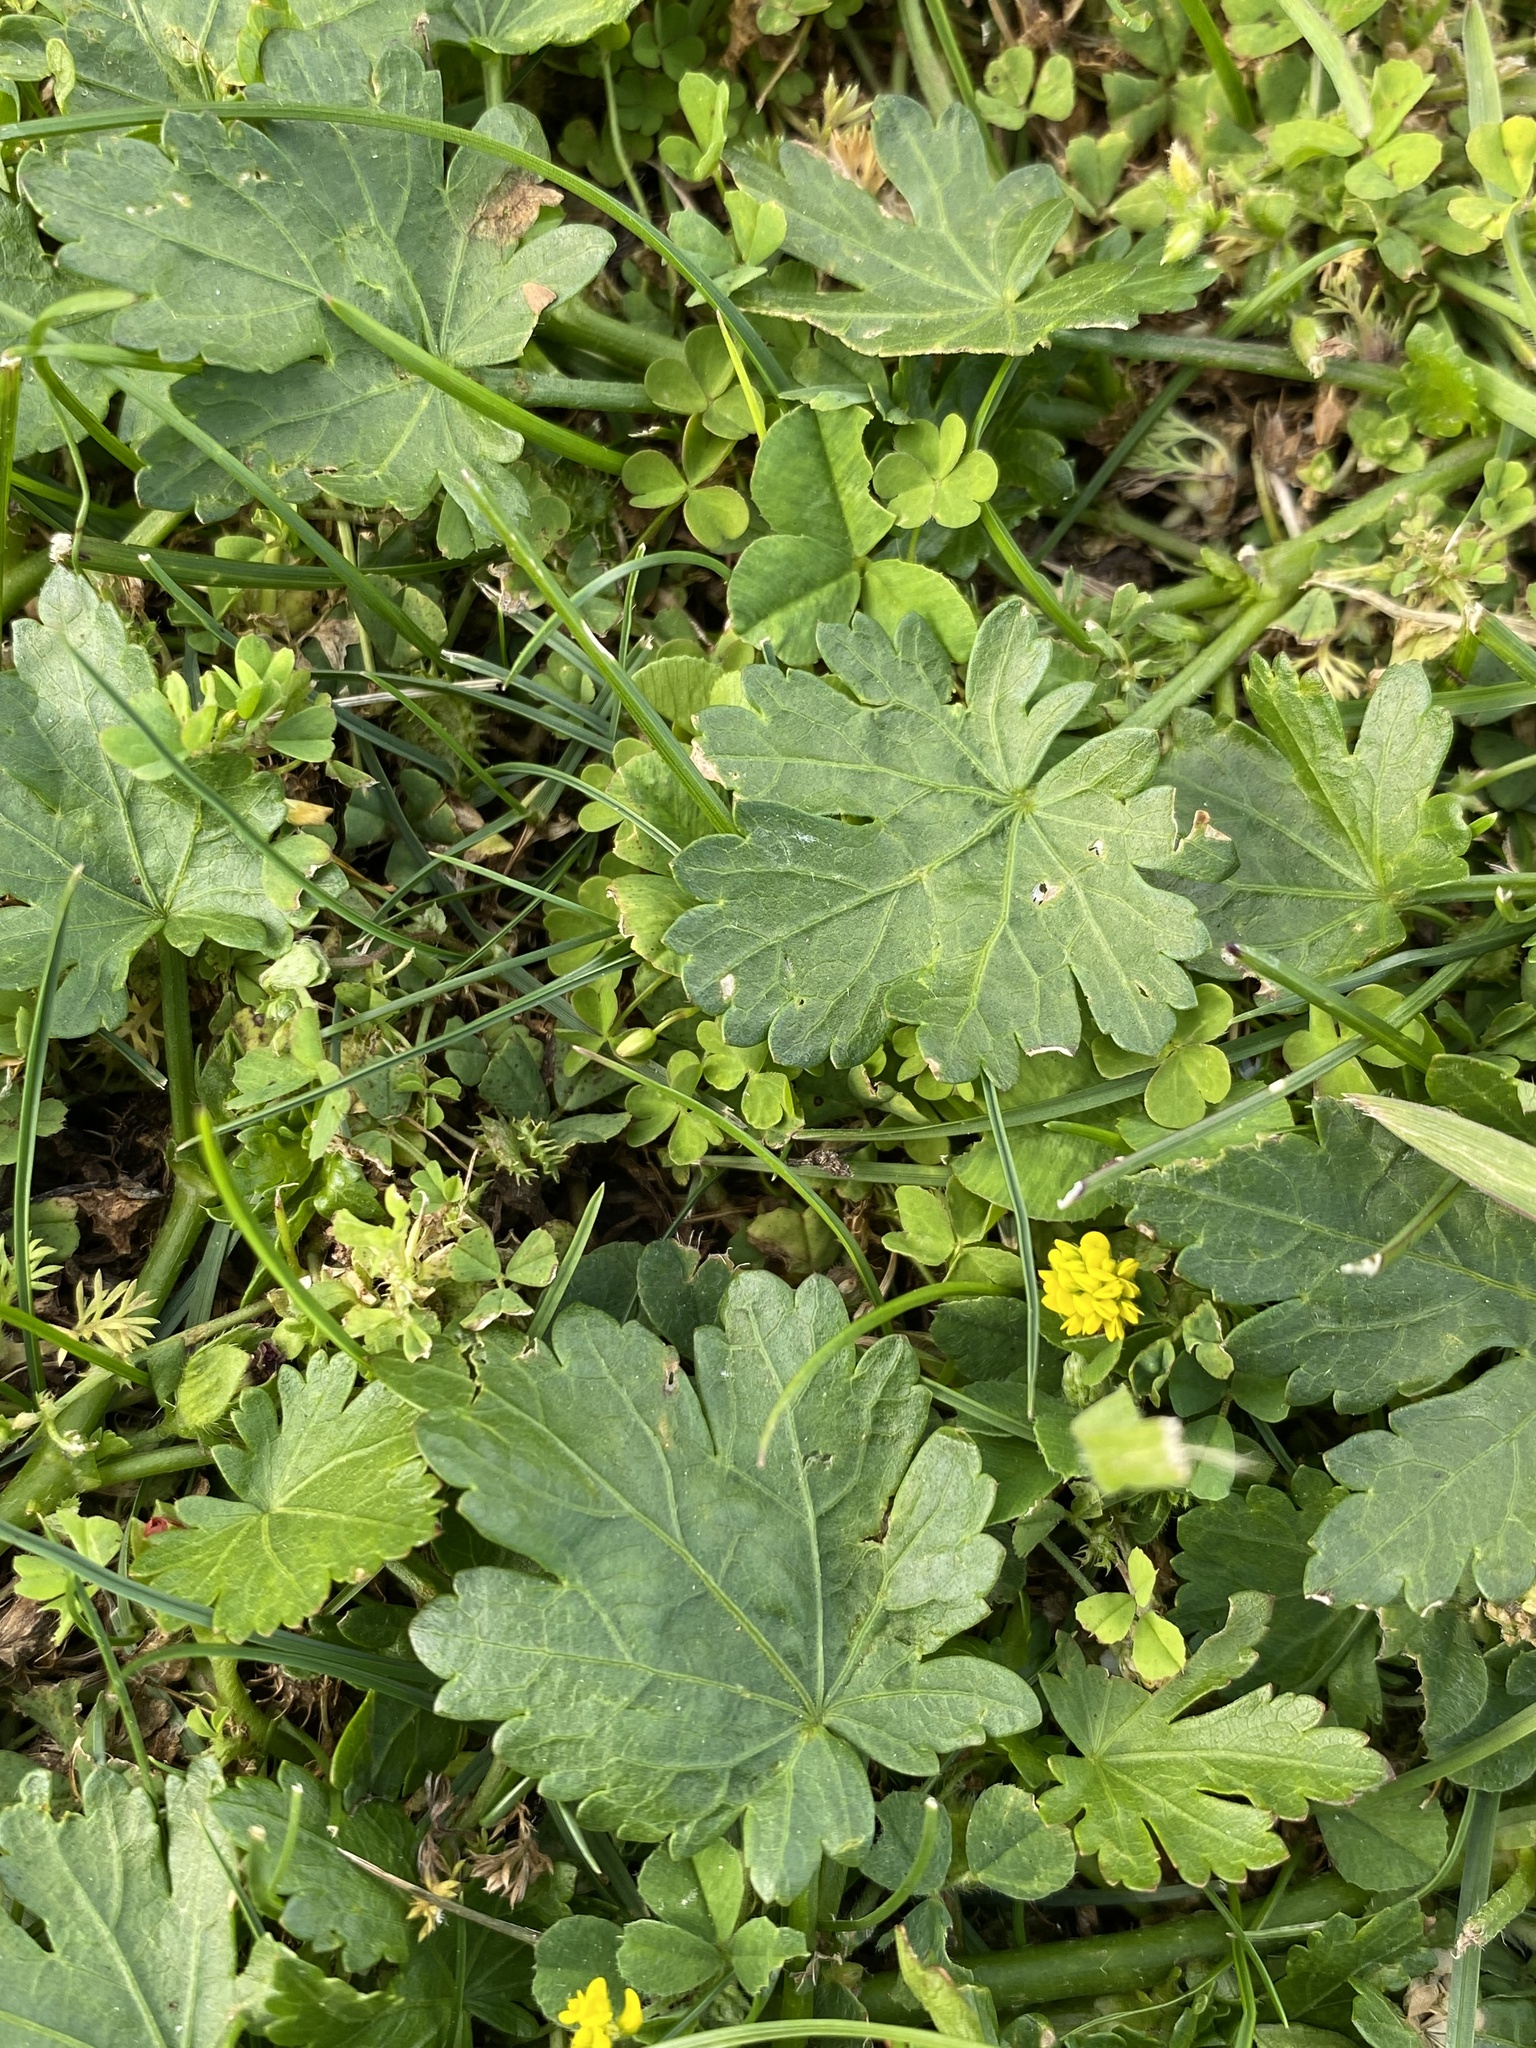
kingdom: Plantae
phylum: Tracheophyta
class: Magnoliopsida
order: Malvales
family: Malvaceae
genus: Modiola
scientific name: Modiola caroliniana
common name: Carolina bristlemallow
